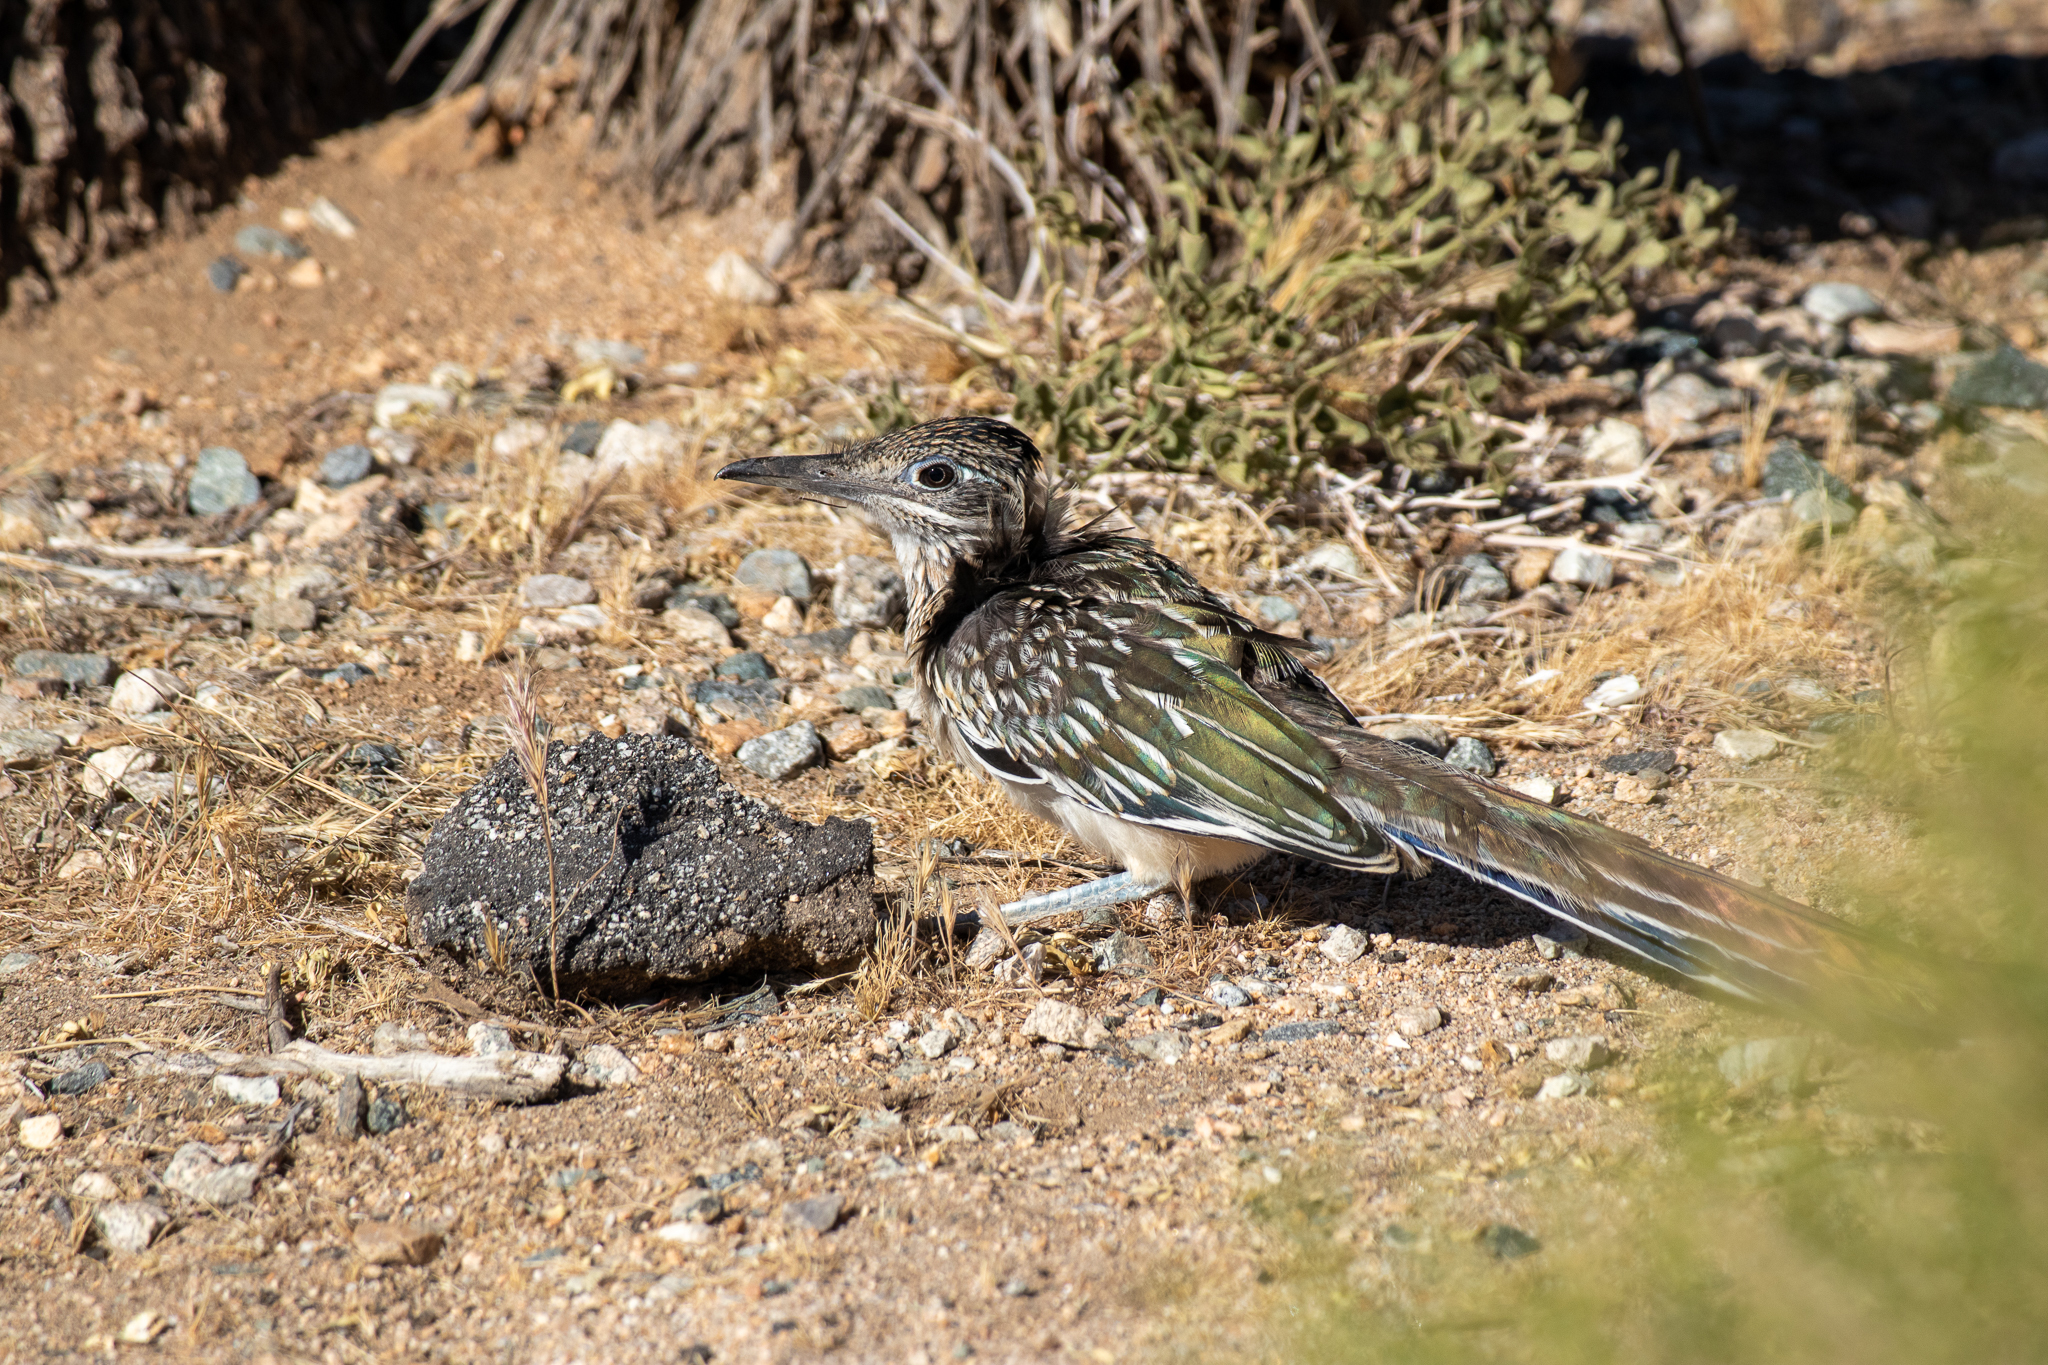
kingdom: Animalia
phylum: Chordata
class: Aves
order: Cuculiformes
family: Cuculidae
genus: Geococcyx
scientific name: Geococcyx californianus
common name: Greater roadrunner
